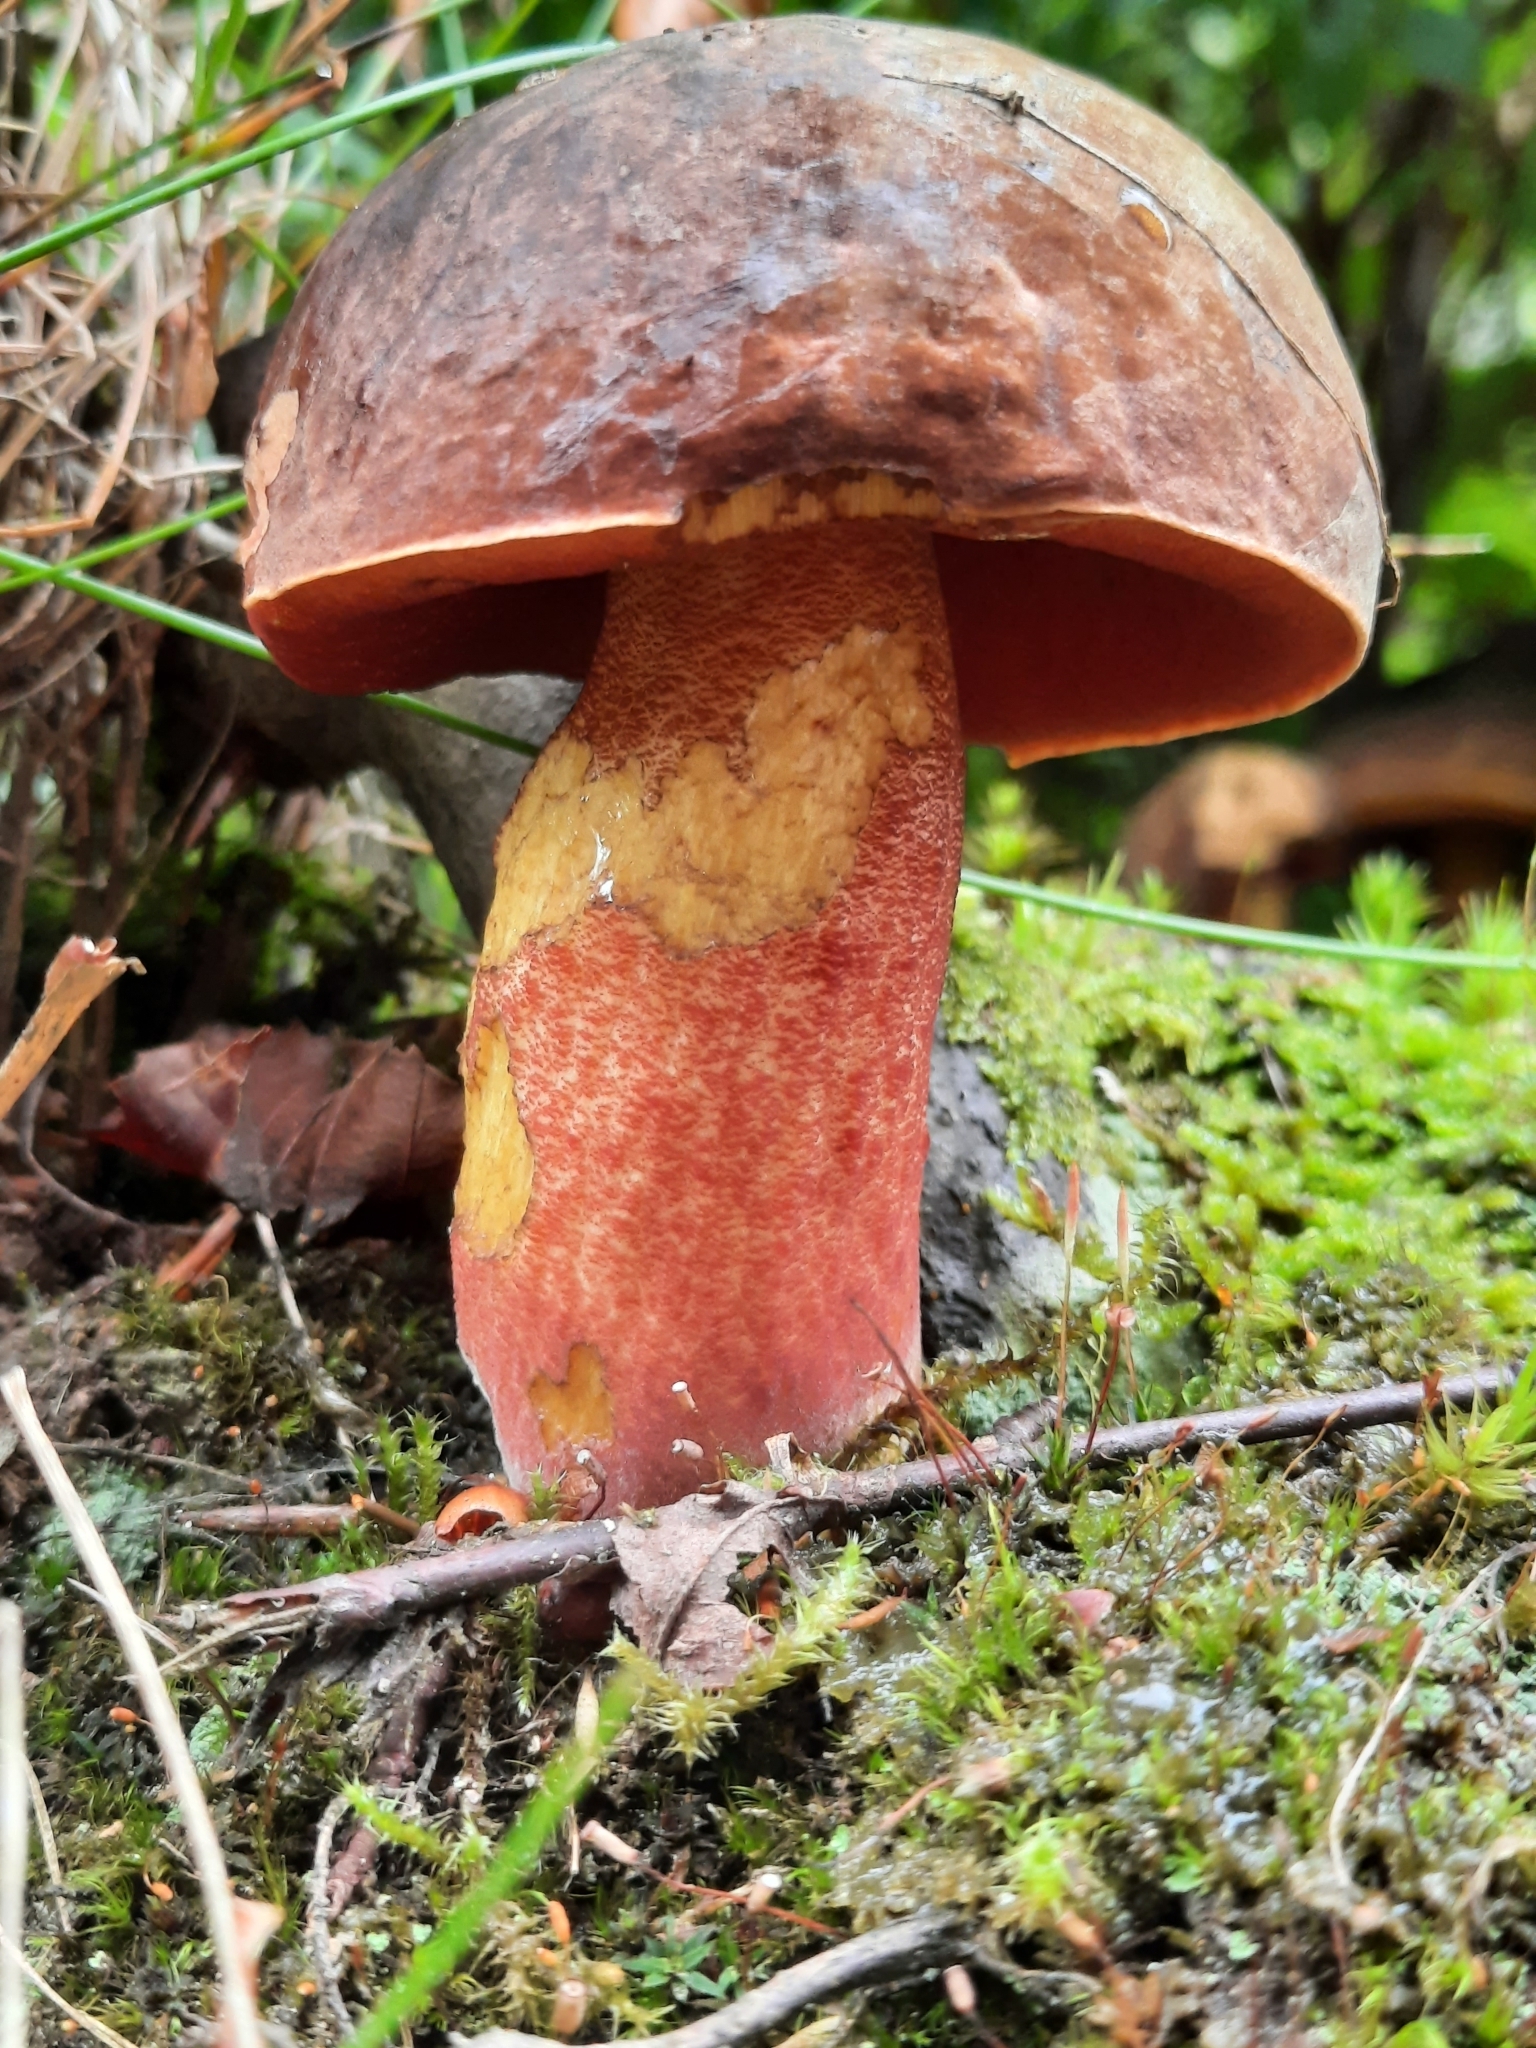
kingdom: Fungi
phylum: Basidiomycota
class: Agaricomycetes
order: Boletales
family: Boletaceae
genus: Neoboletus
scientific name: Neoboletus erythropus
